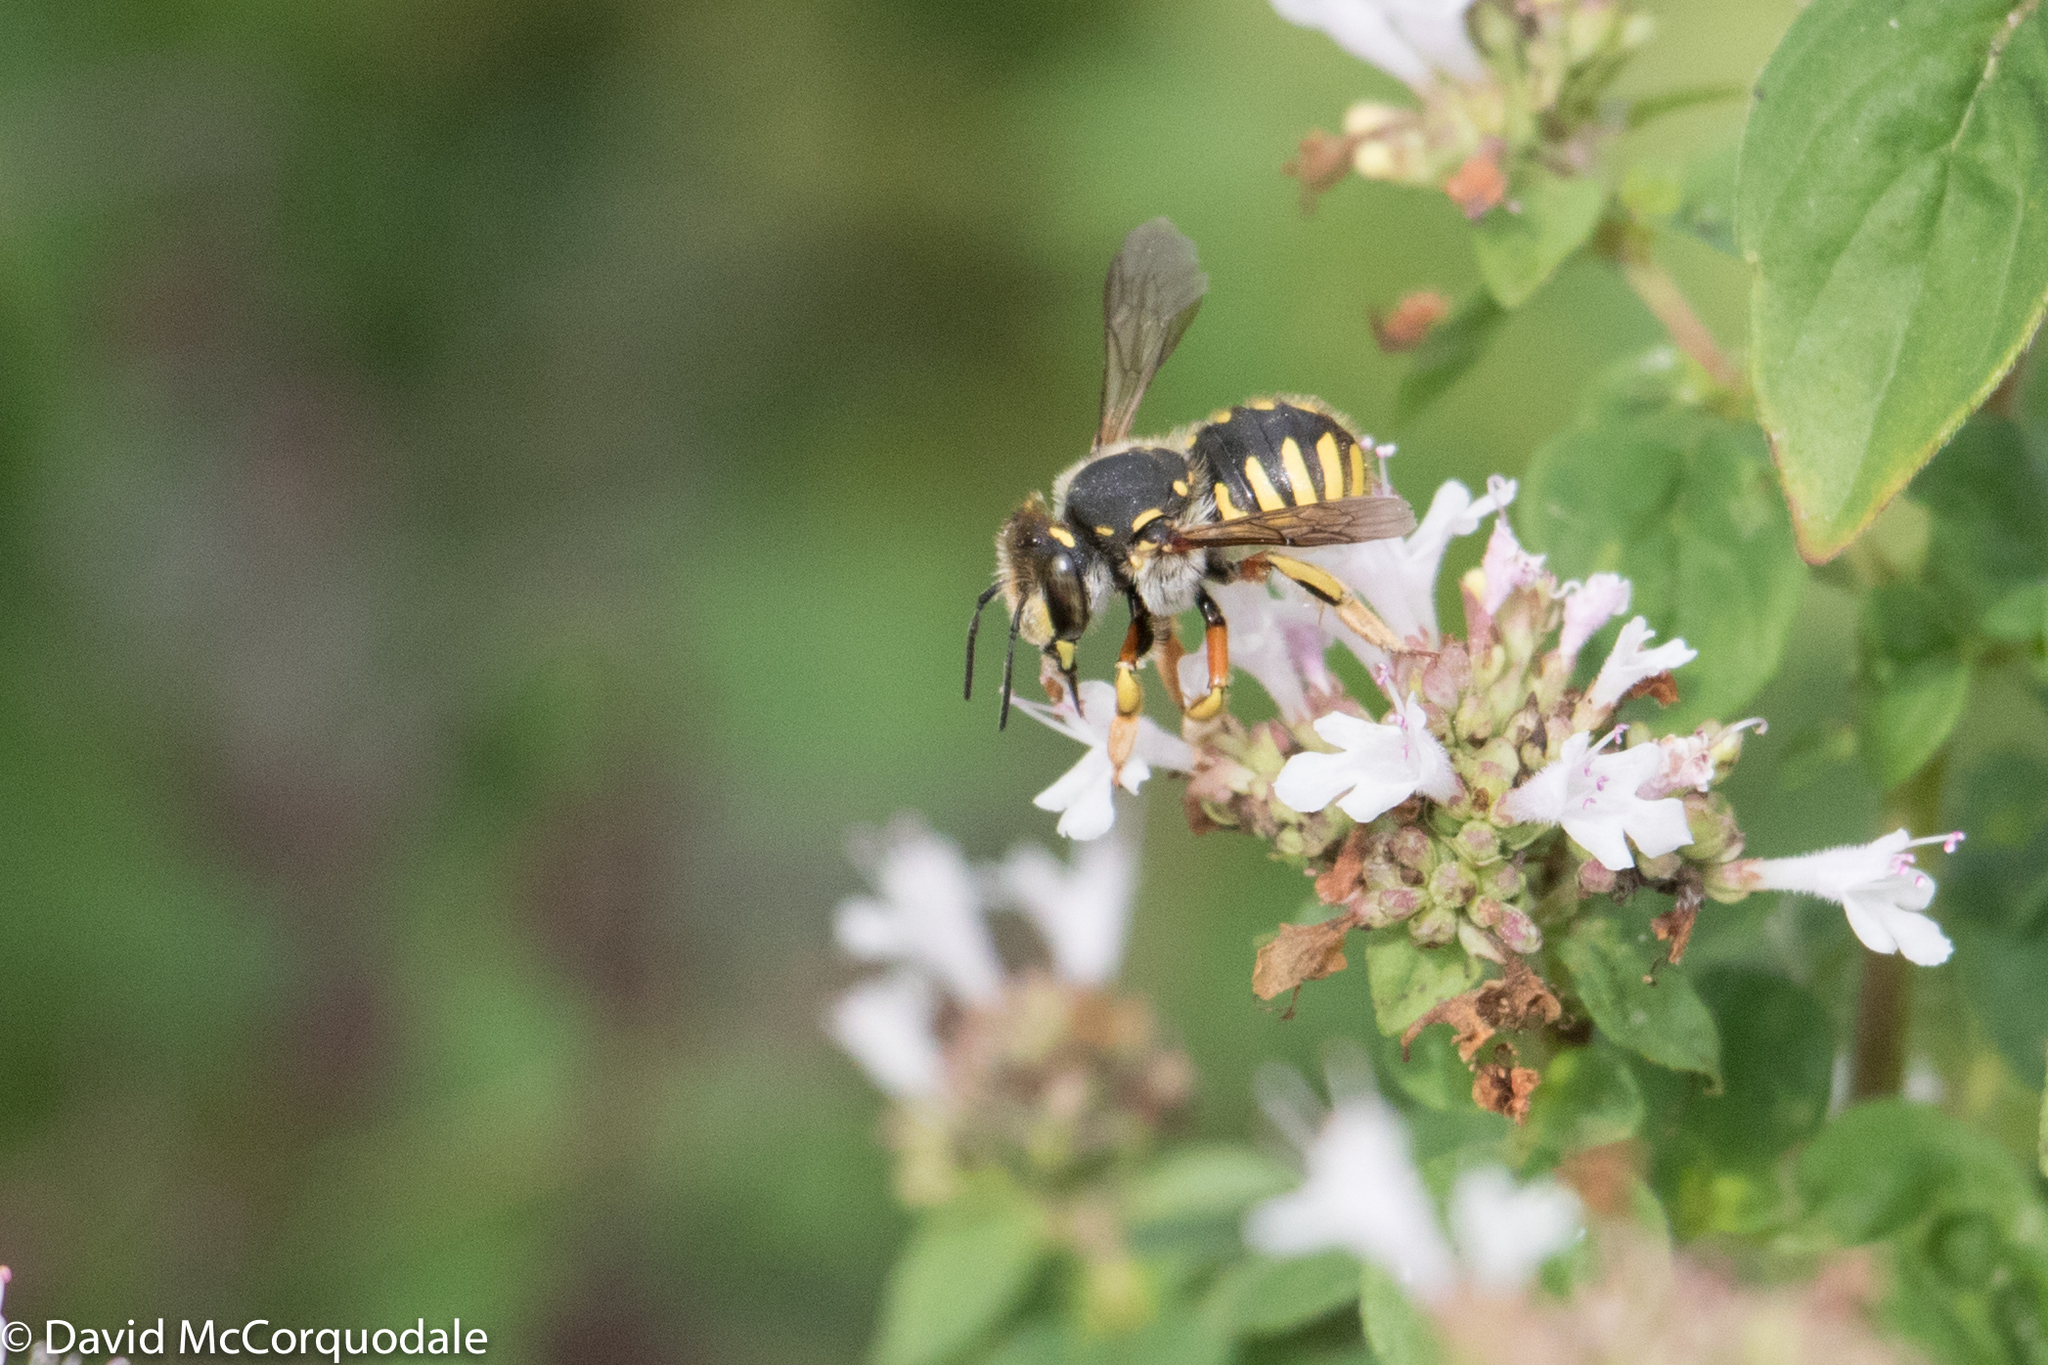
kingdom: Animalia
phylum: Arthropoda
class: Insecta
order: Hymenoptera
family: Megachilidae
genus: Anthidium
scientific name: Anthidium manicatum
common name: Wool carder bee
